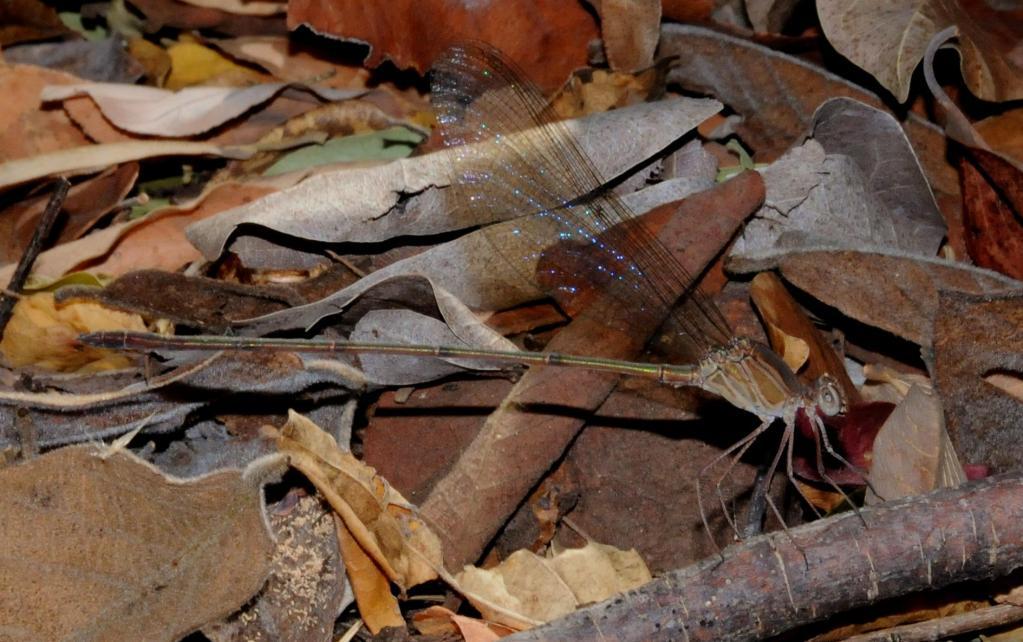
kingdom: Animalia
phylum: Arthropoda
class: Insecta
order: Odonata
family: Calopterygidae
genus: Phaon
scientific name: Phaon iridipennis
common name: Glistening demoiselle
